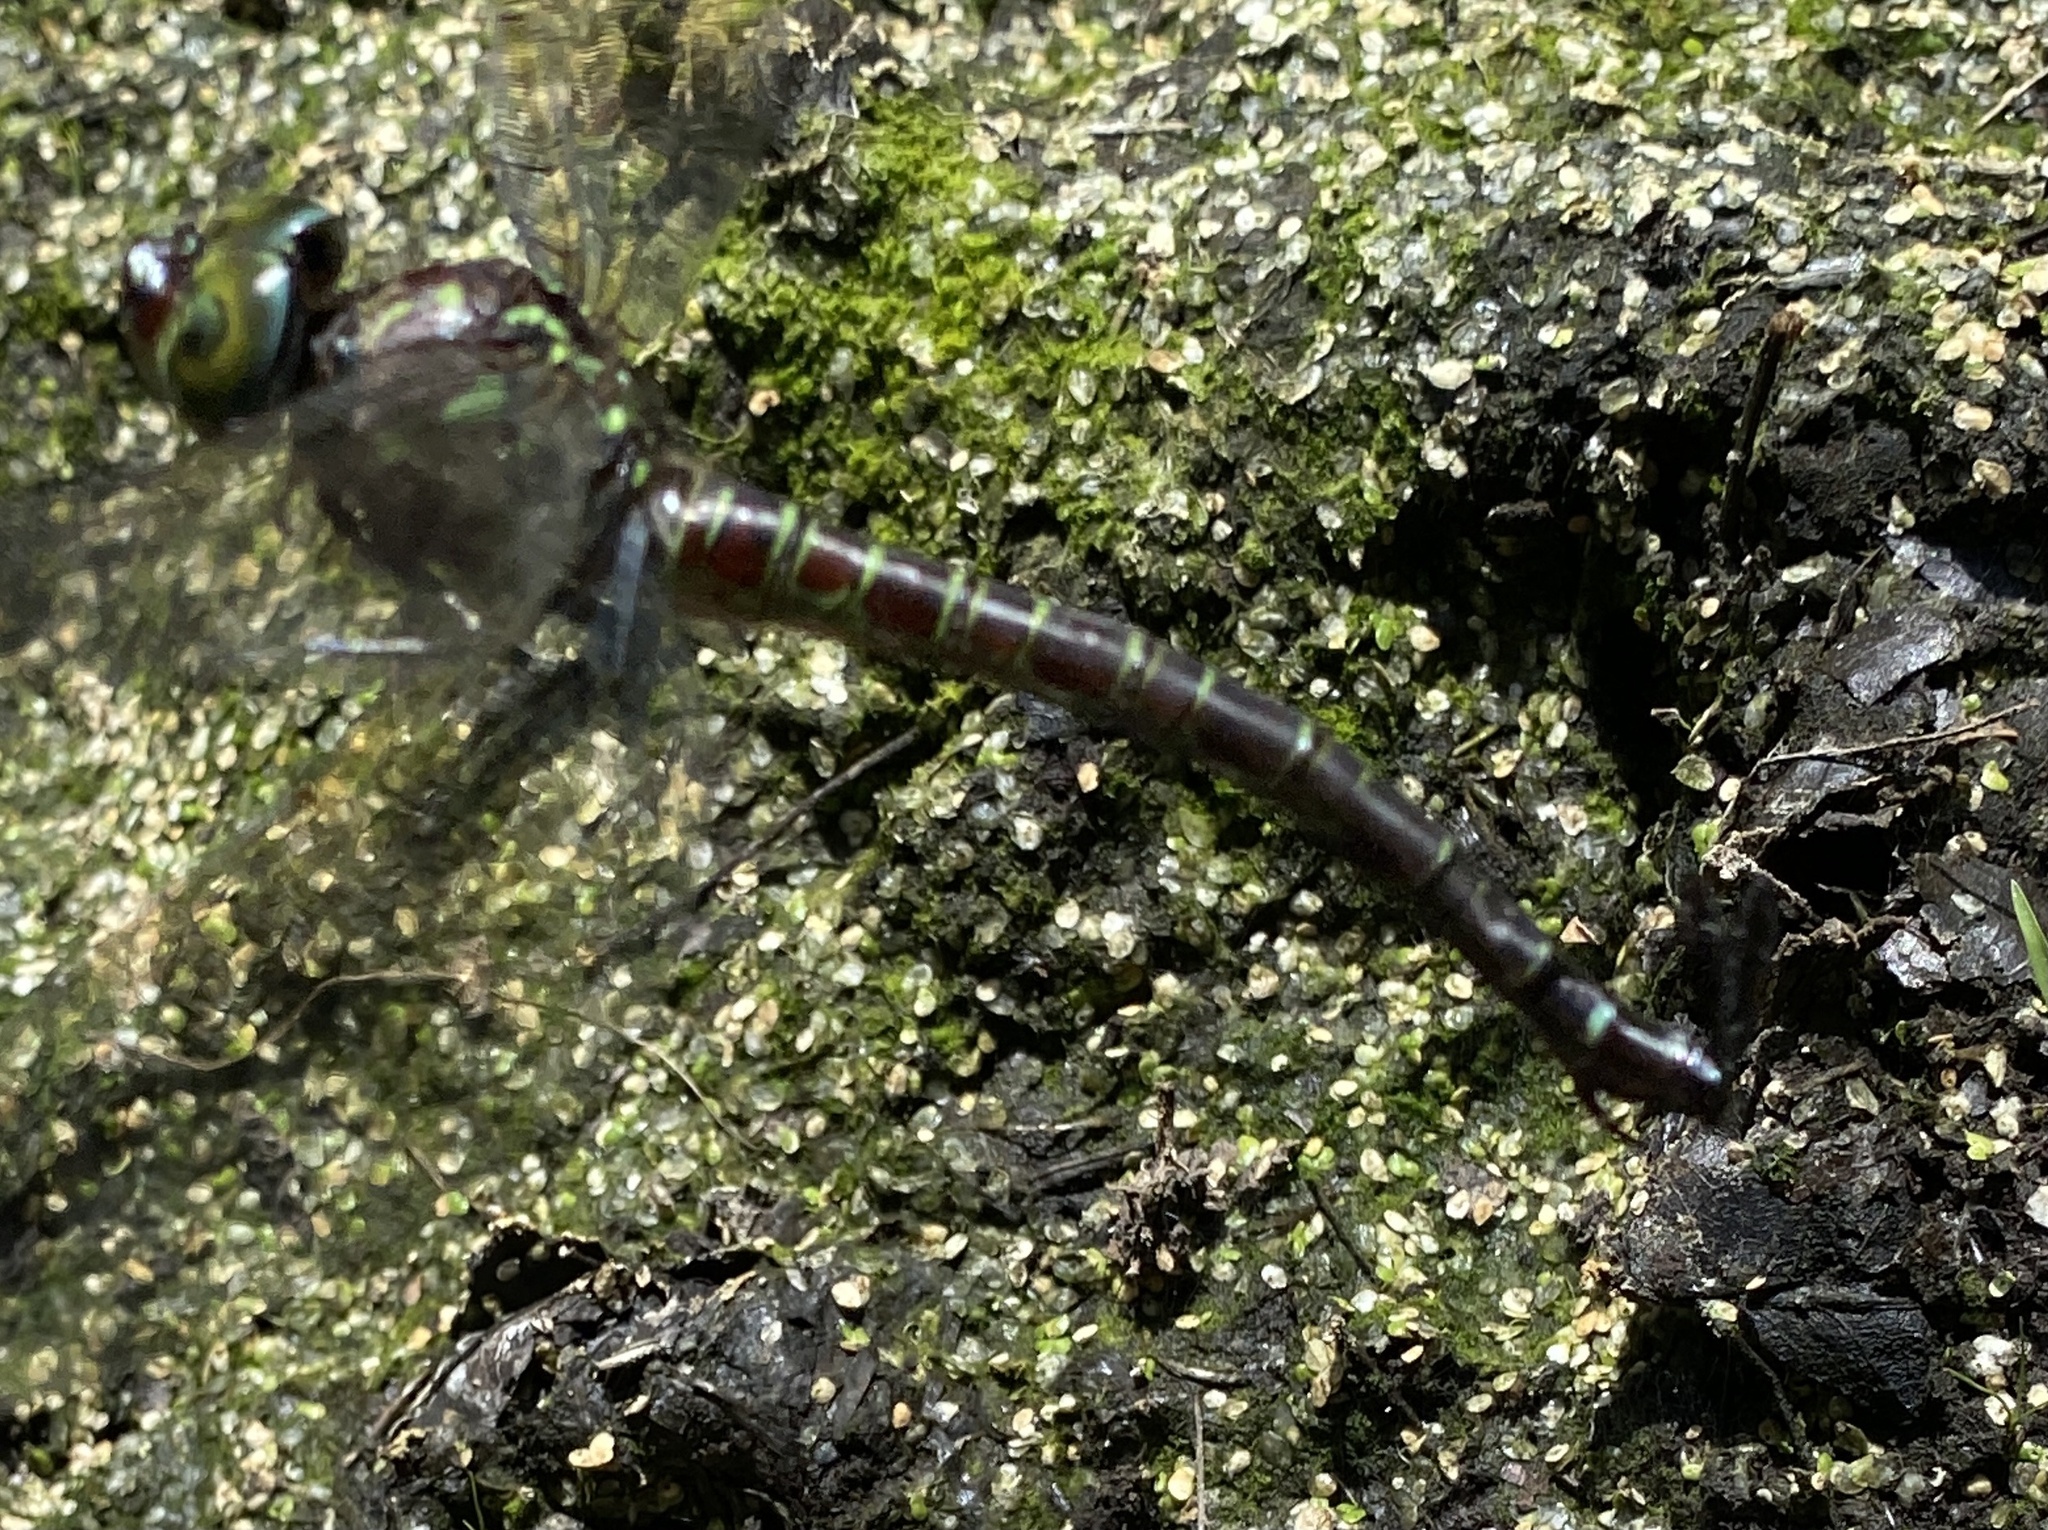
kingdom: Animalia
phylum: Arthropoda
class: Insecta
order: Odonata
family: Aeshnidae
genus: Epiaeschna
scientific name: Epiaeschna heros
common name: Swamp darner
